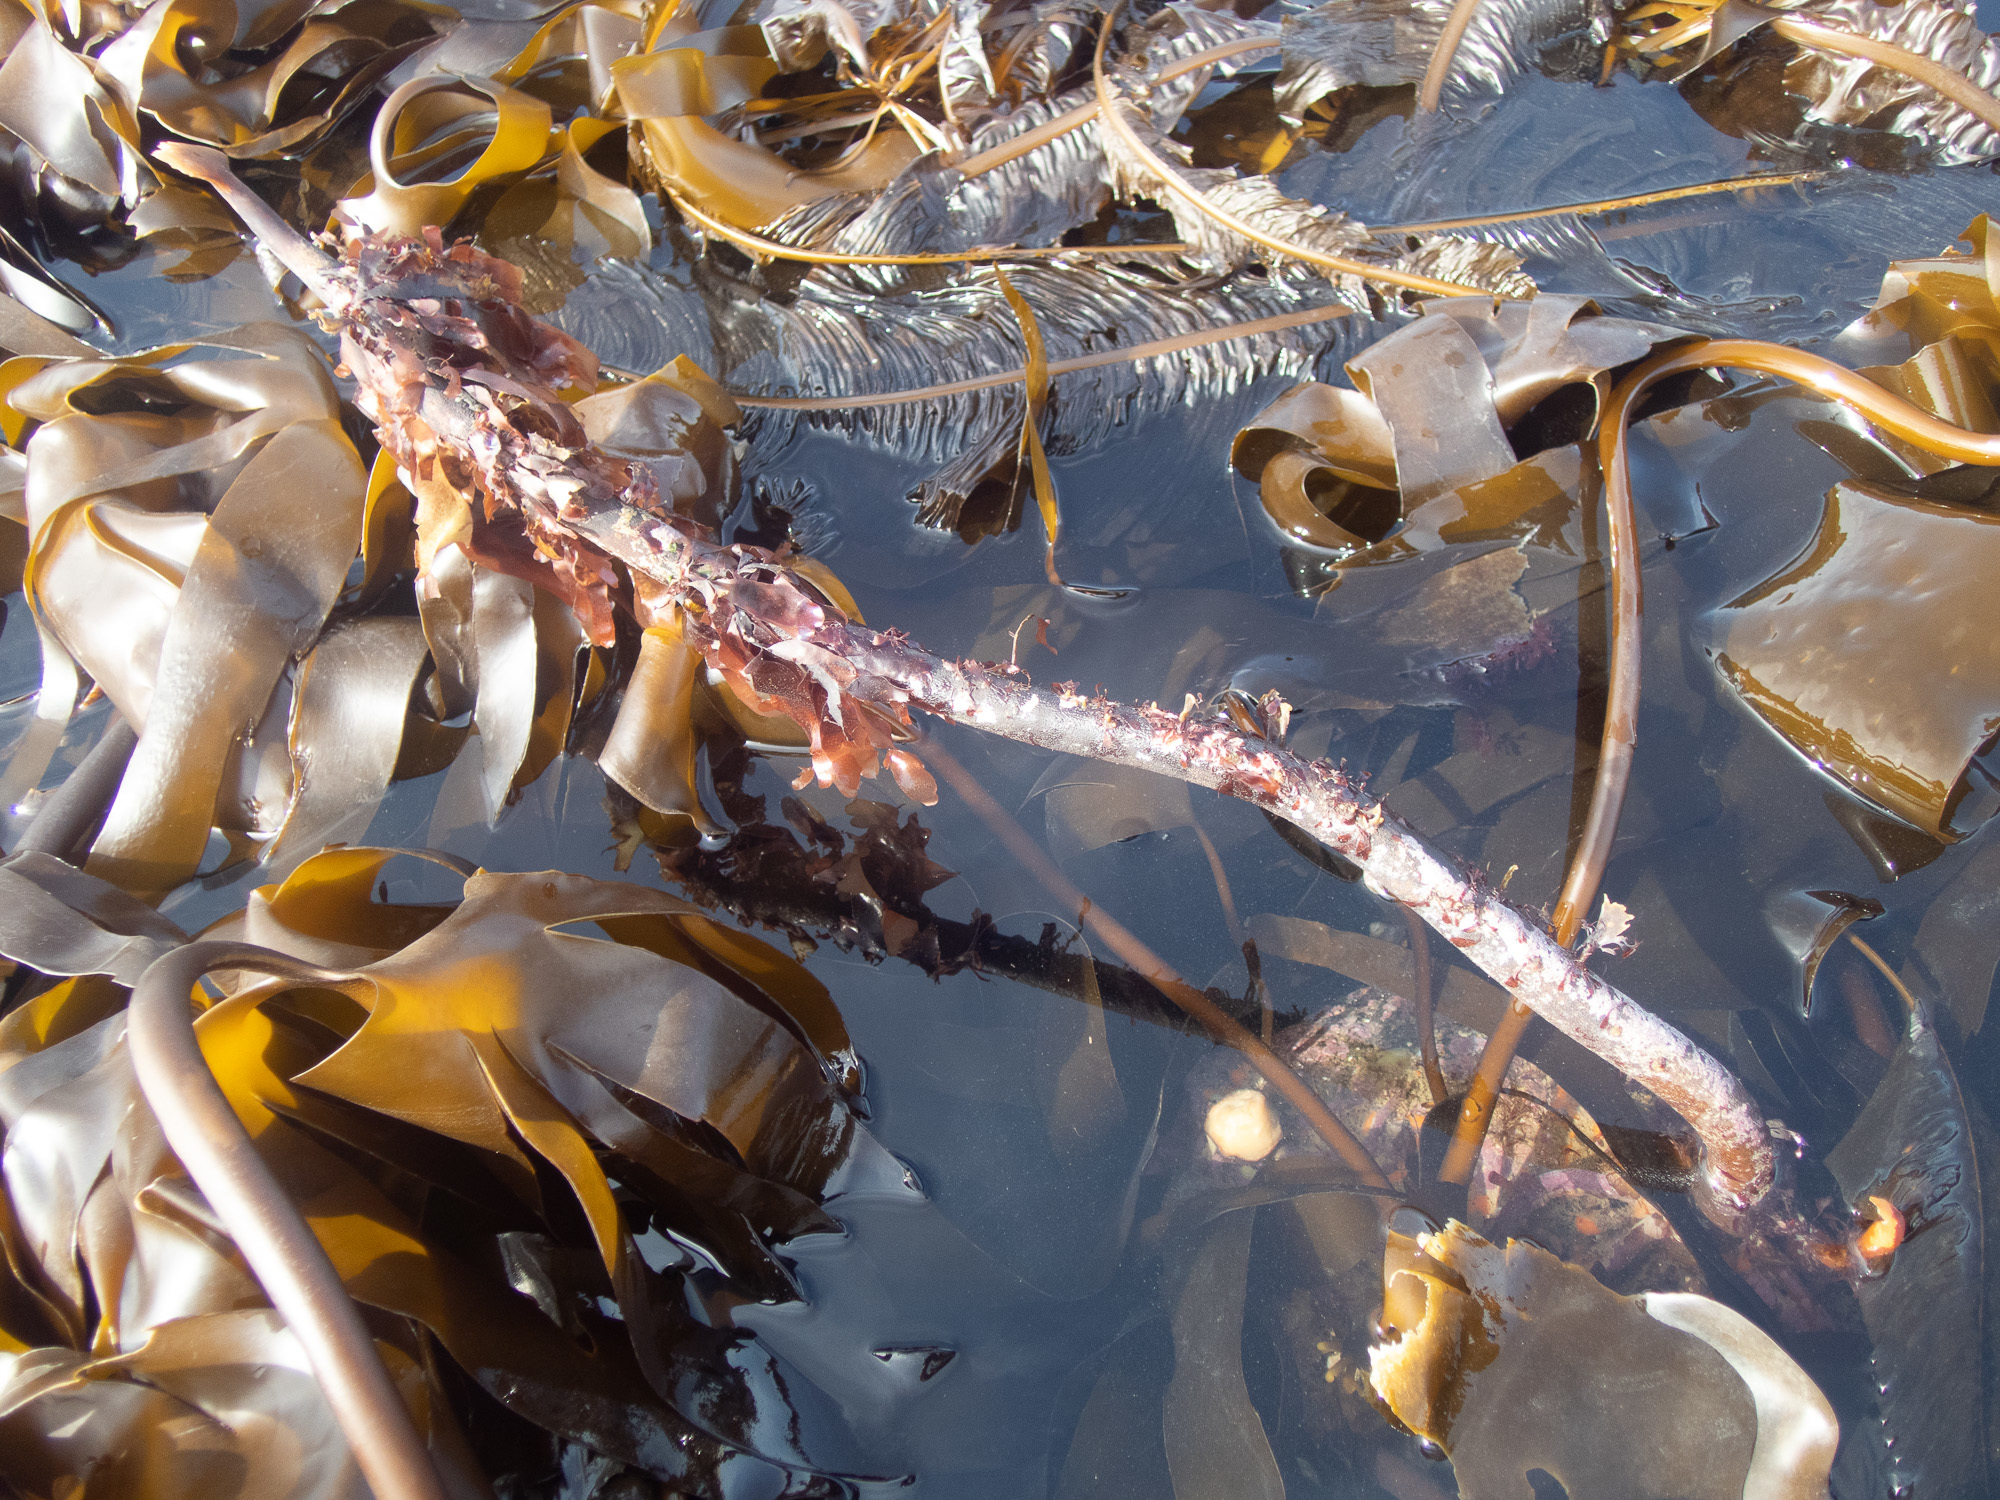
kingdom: Chromista
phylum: Ochrophyta
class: Phaeophyceae
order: Laminariales
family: Laminariaceae
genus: Laminaria
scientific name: Laminaria hyperborea
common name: Cuvie
